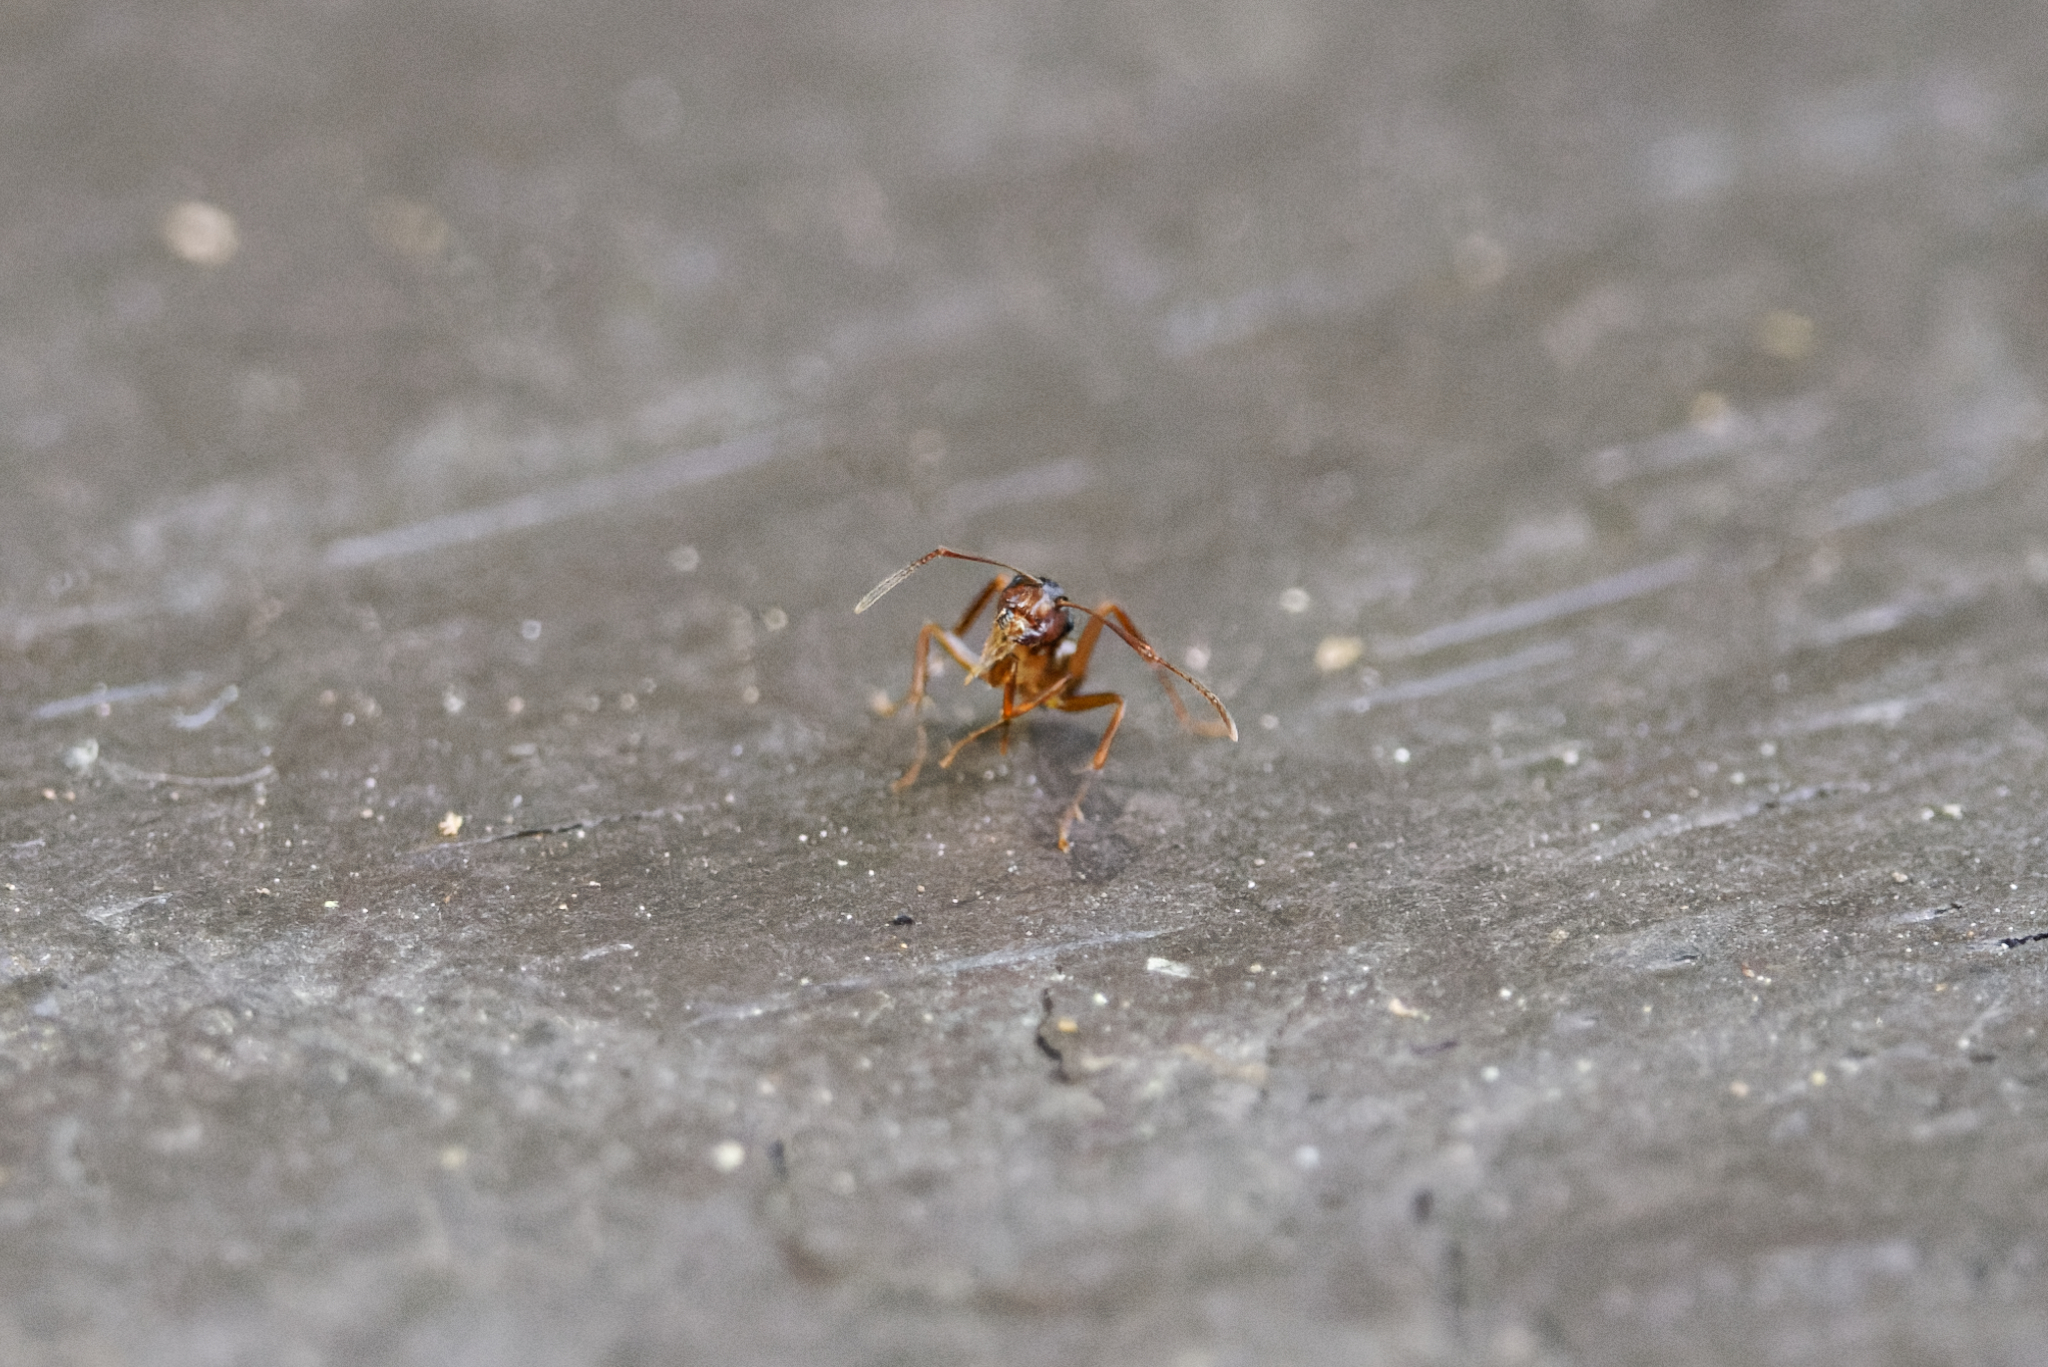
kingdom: Animalia
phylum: Arthropoda
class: Insecta
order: Hymenoptera
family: Formicidae
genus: Camponotus
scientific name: Camponotus subbarbatus
